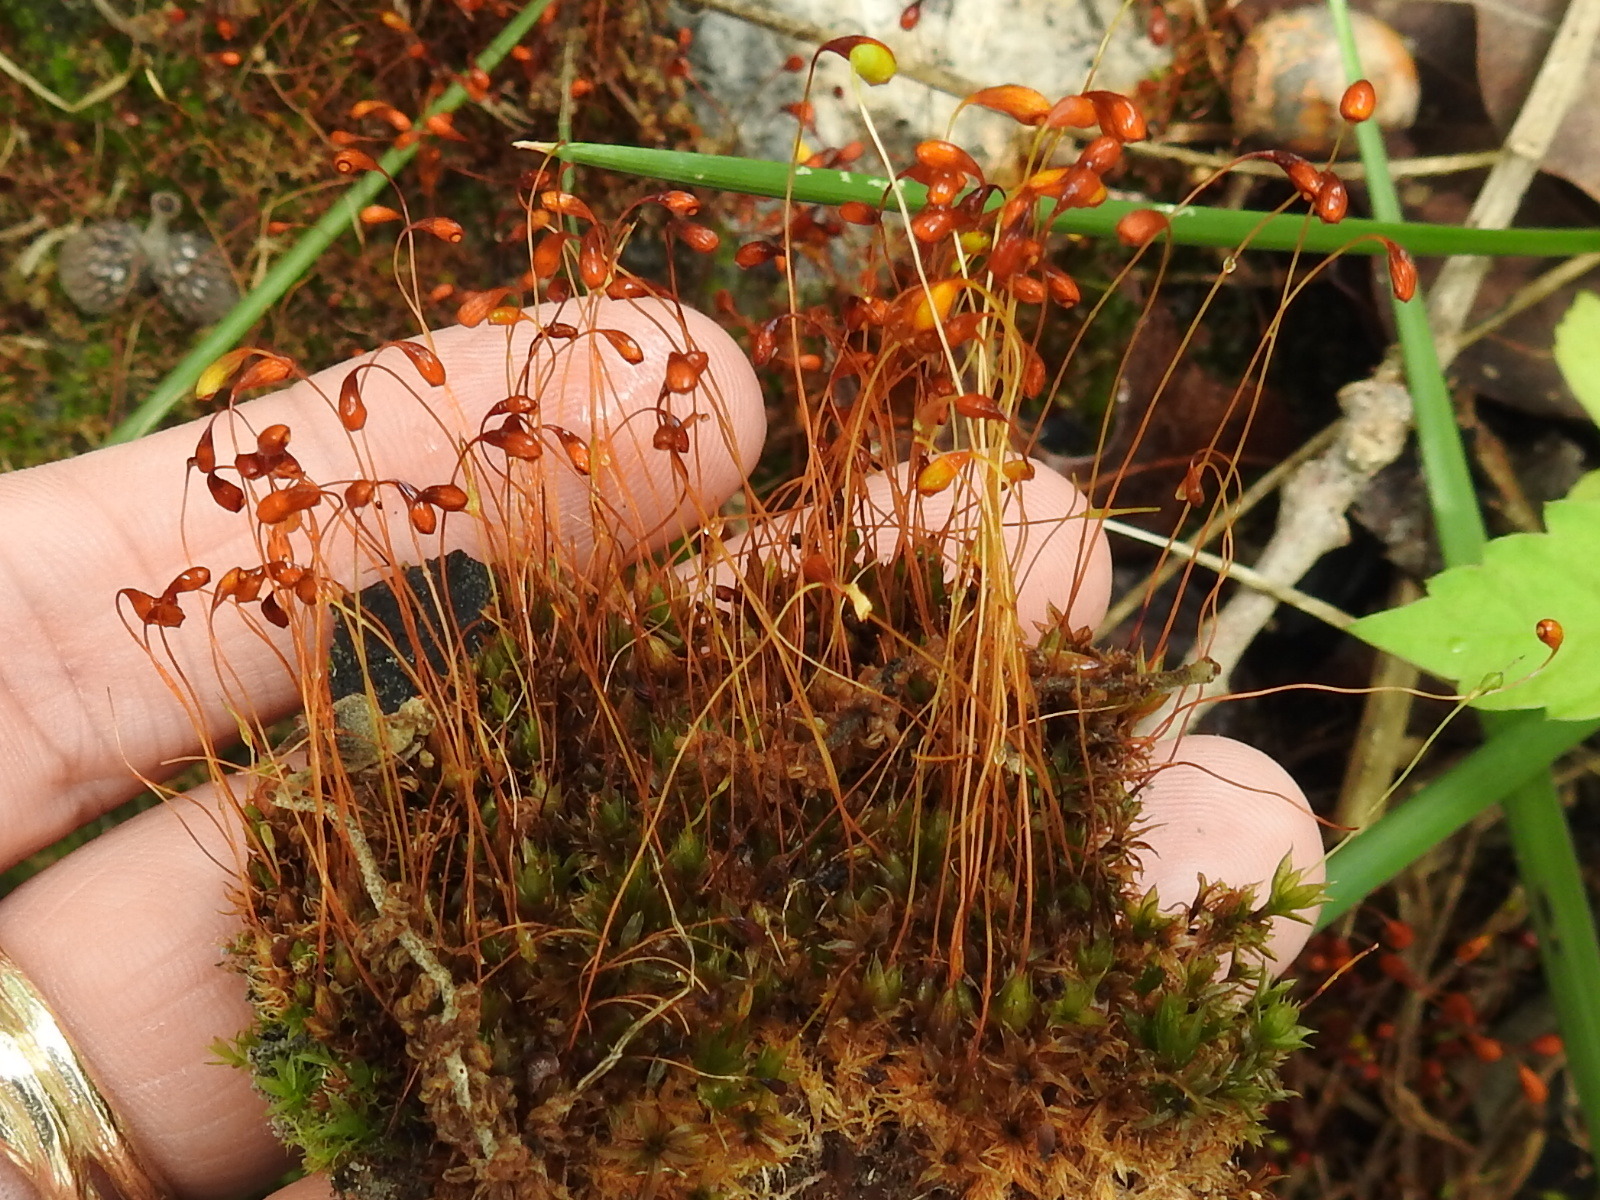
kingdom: Plantae
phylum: Bryophyta
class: Bryopsida
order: Funariales
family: Funariaceae
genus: Funaria
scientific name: Funaria hygrometrica
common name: Common cord moss
